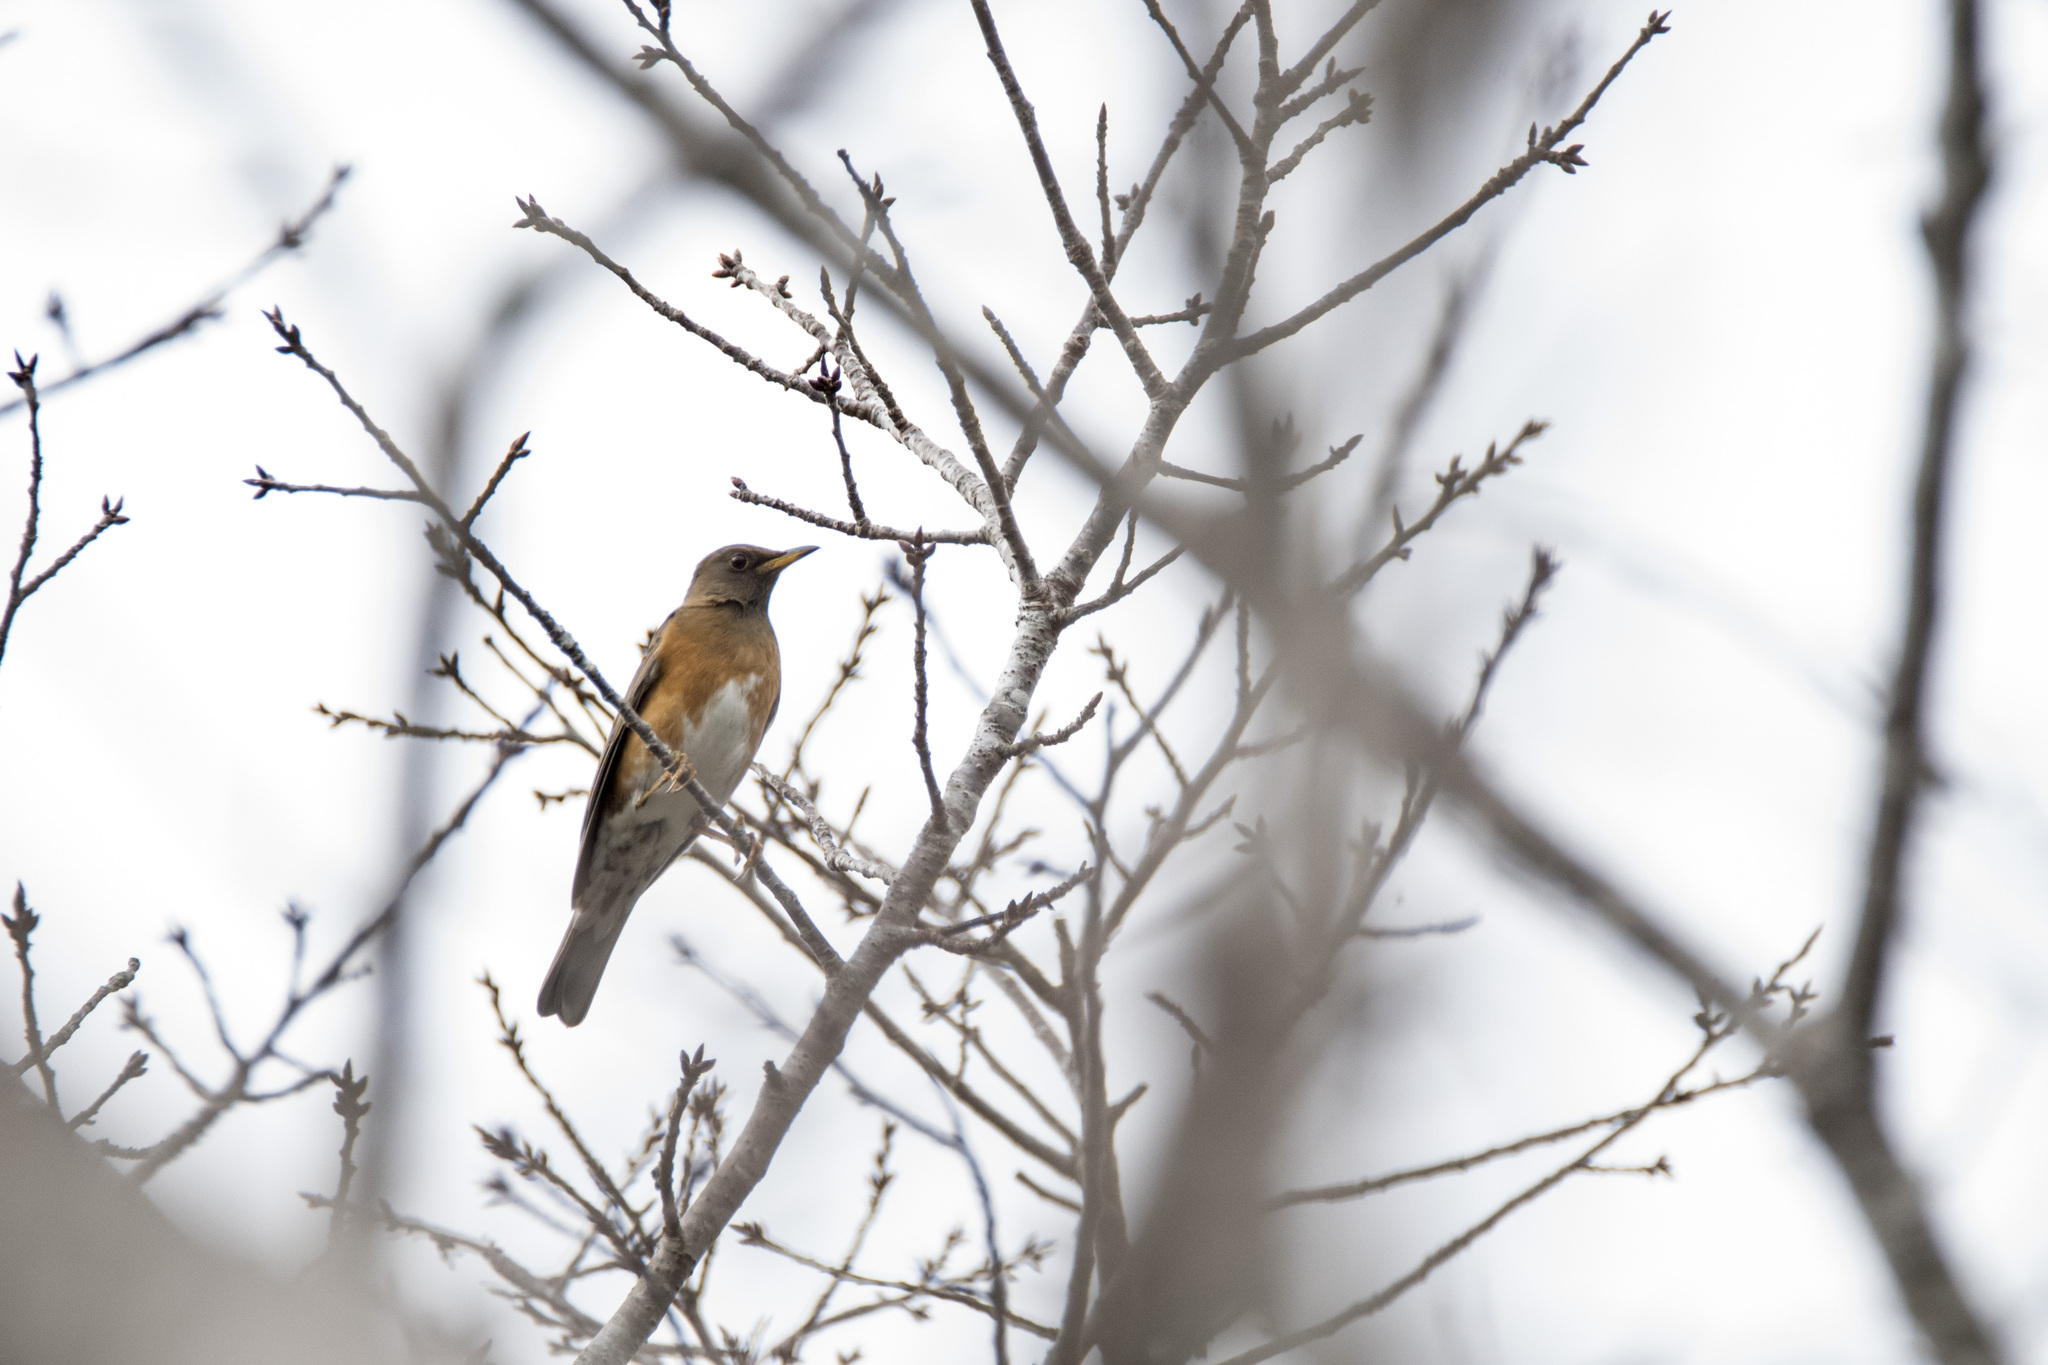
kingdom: Animalia
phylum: Chordata
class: Aves
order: Passeriformes
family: Turdidae
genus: Turdus
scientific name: Turdus chrysolaus
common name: Brown-headed thrush
